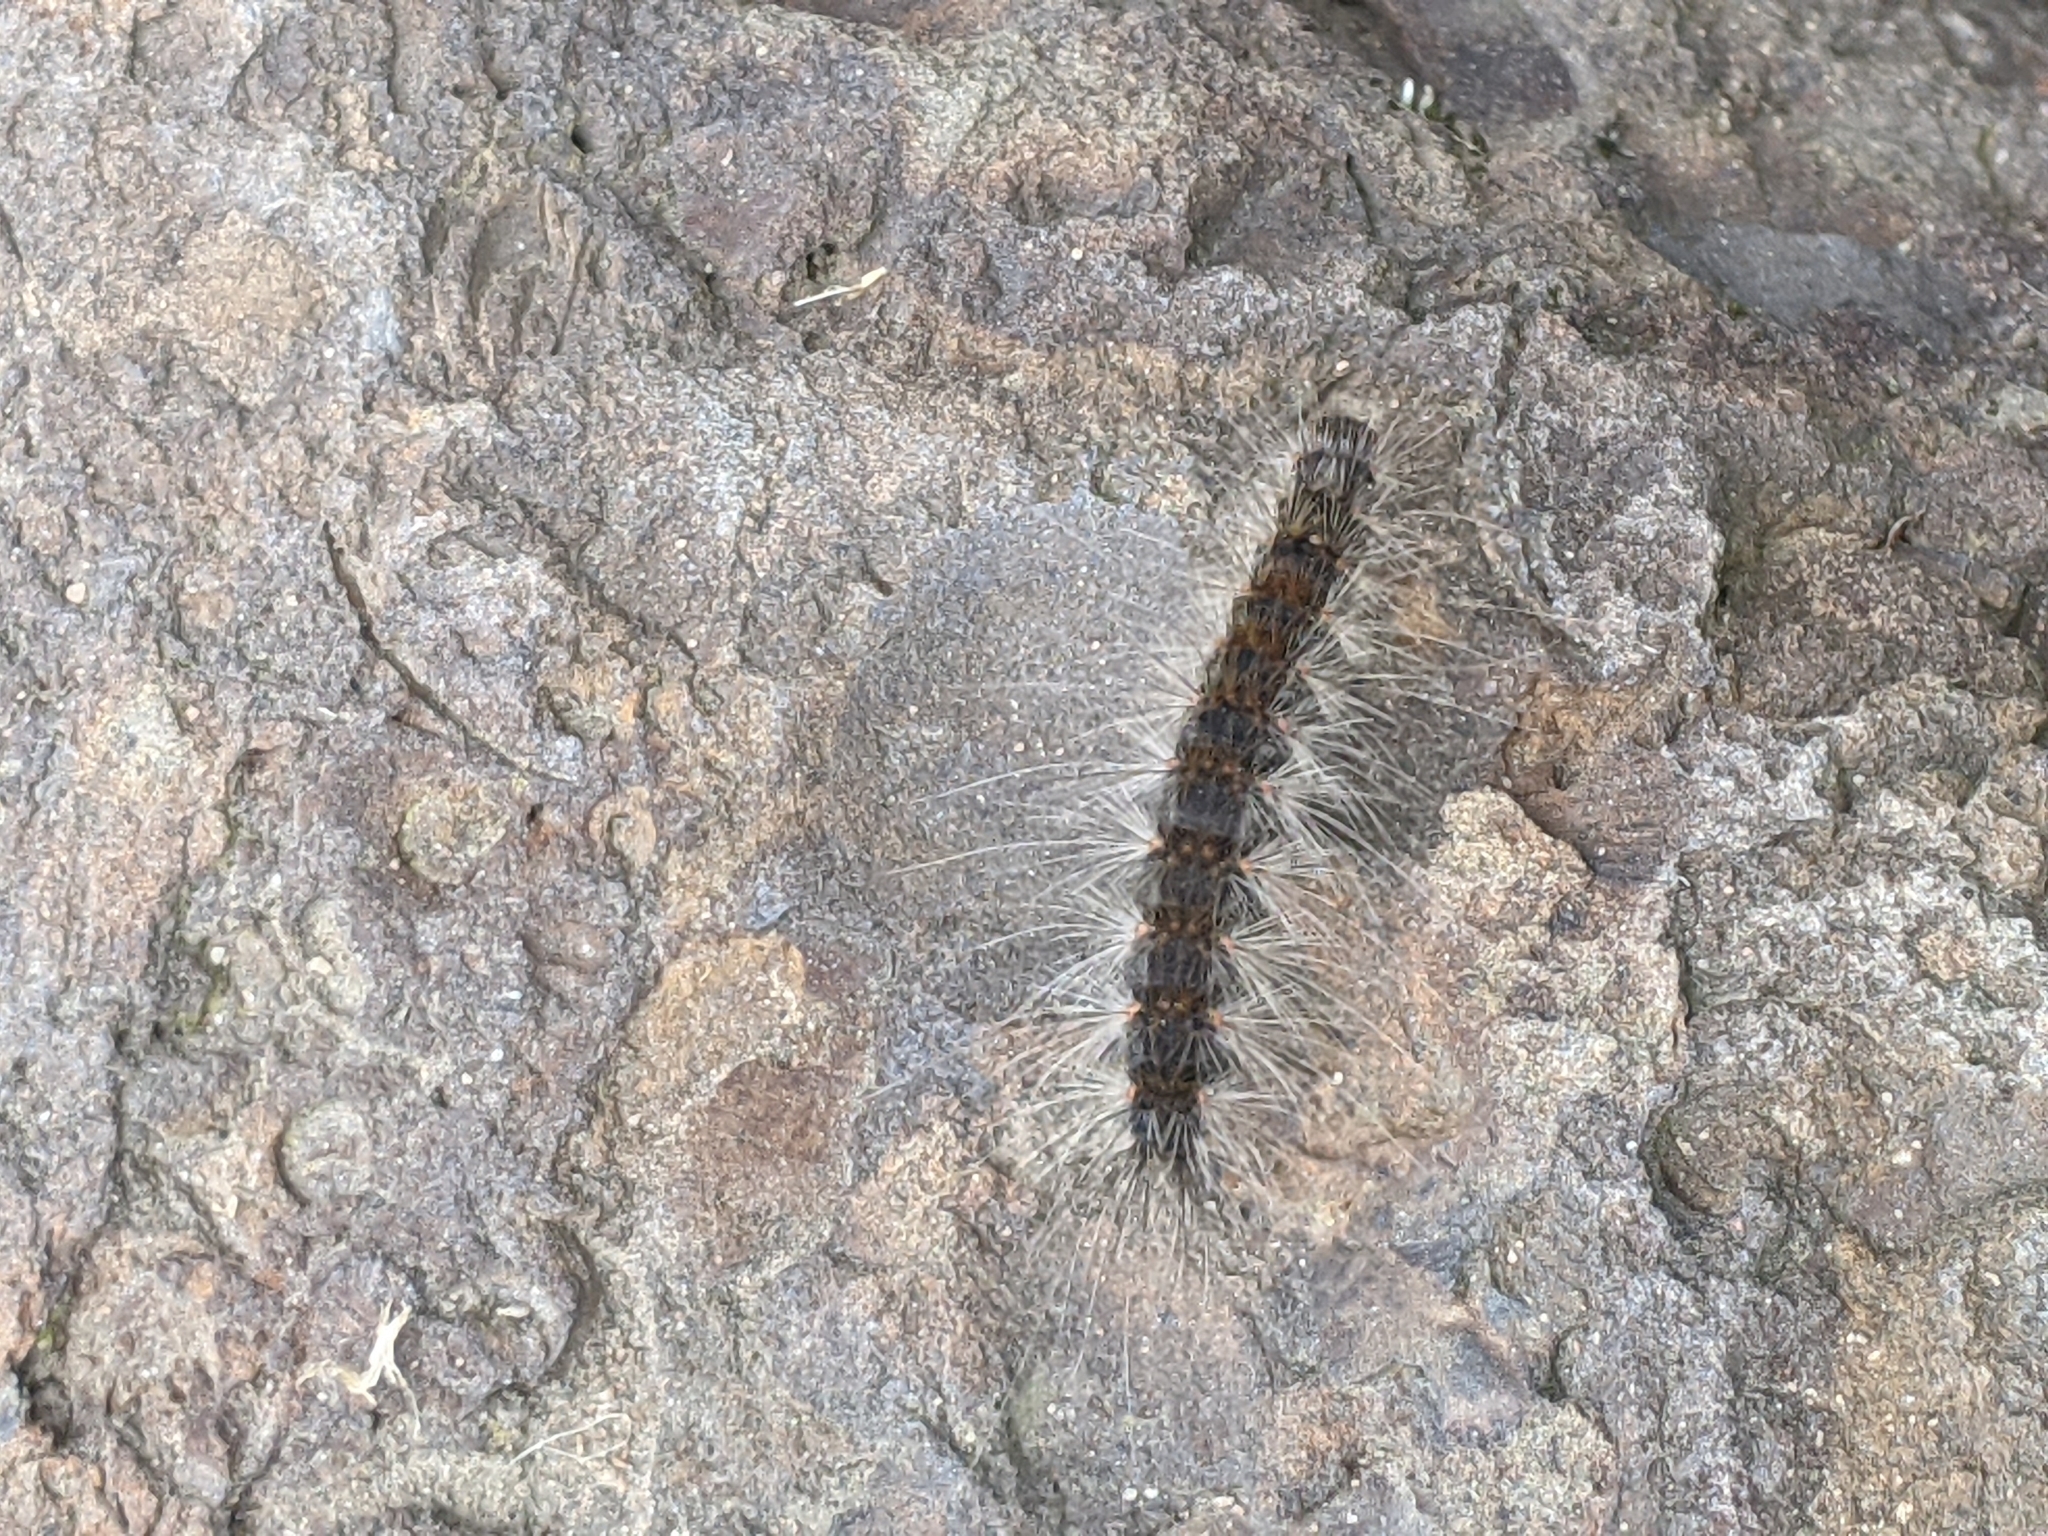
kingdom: Animalia
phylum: Arthropoda
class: Insecta
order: Lepidoptera
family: Erebidae
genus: Hyphantria
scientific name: Hyphantria cunea
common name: American white moth
